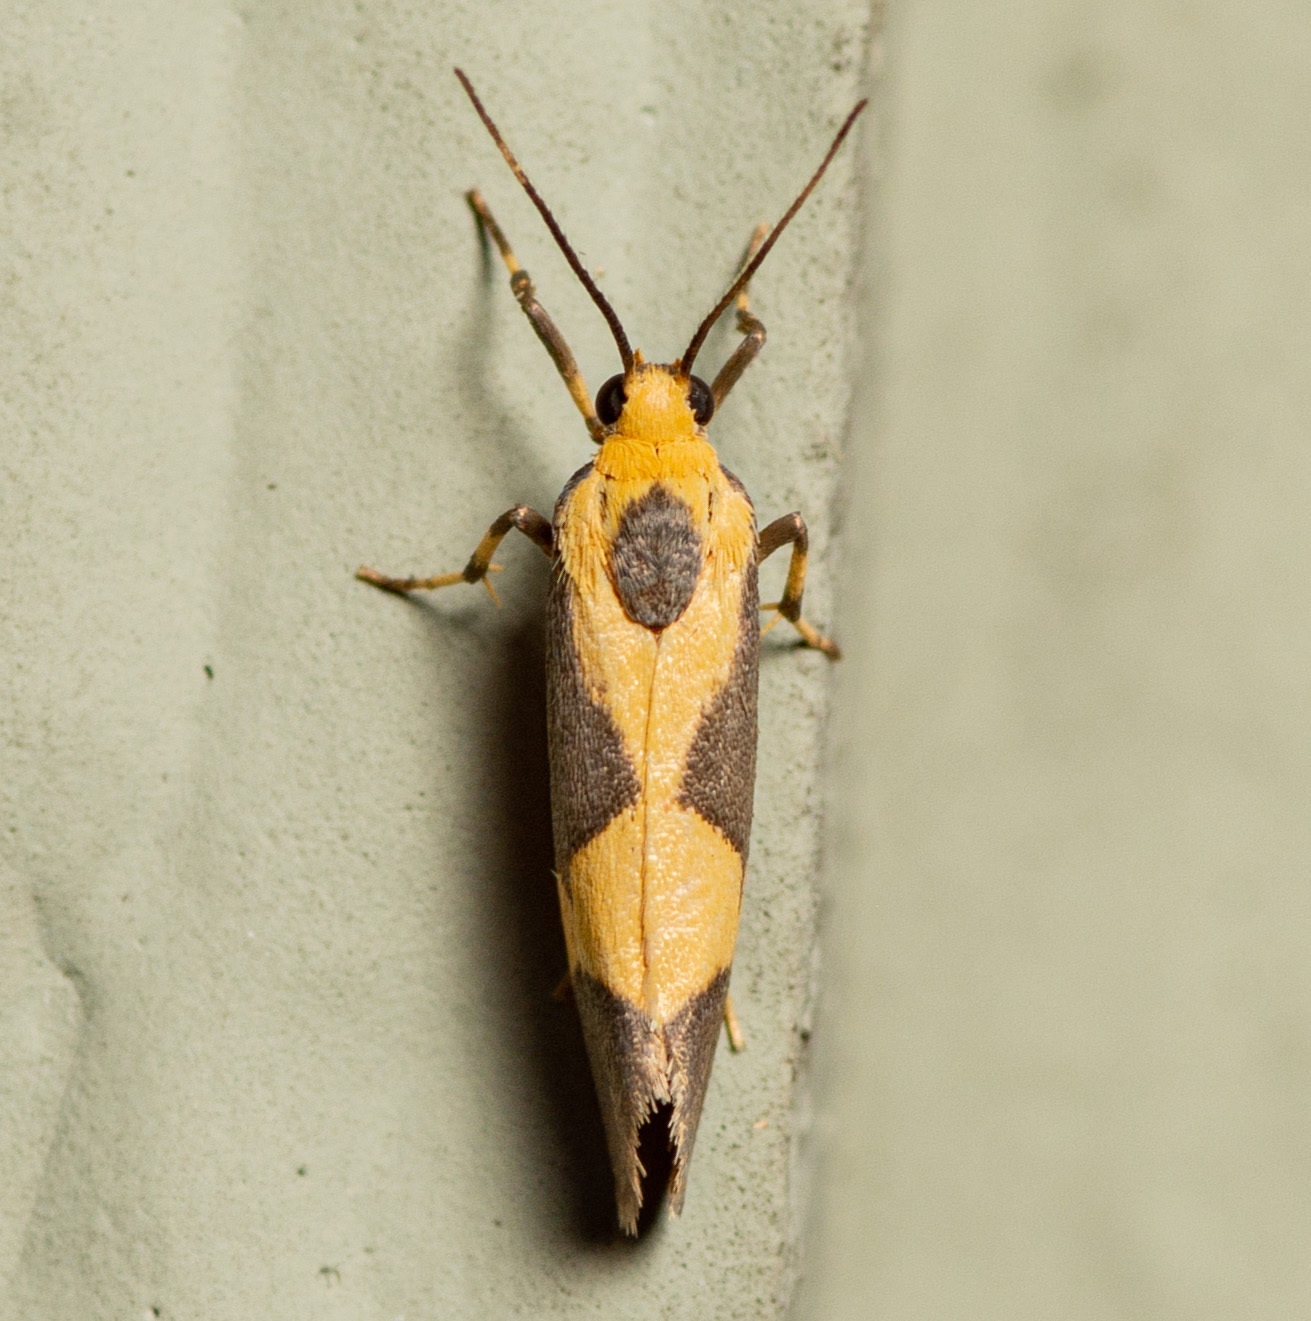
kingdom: Animalia
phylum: Arthropoda
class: Insecta
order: Lepidoptera
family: Erebidae
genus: Cisthene
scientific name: Cisthene unifascia
